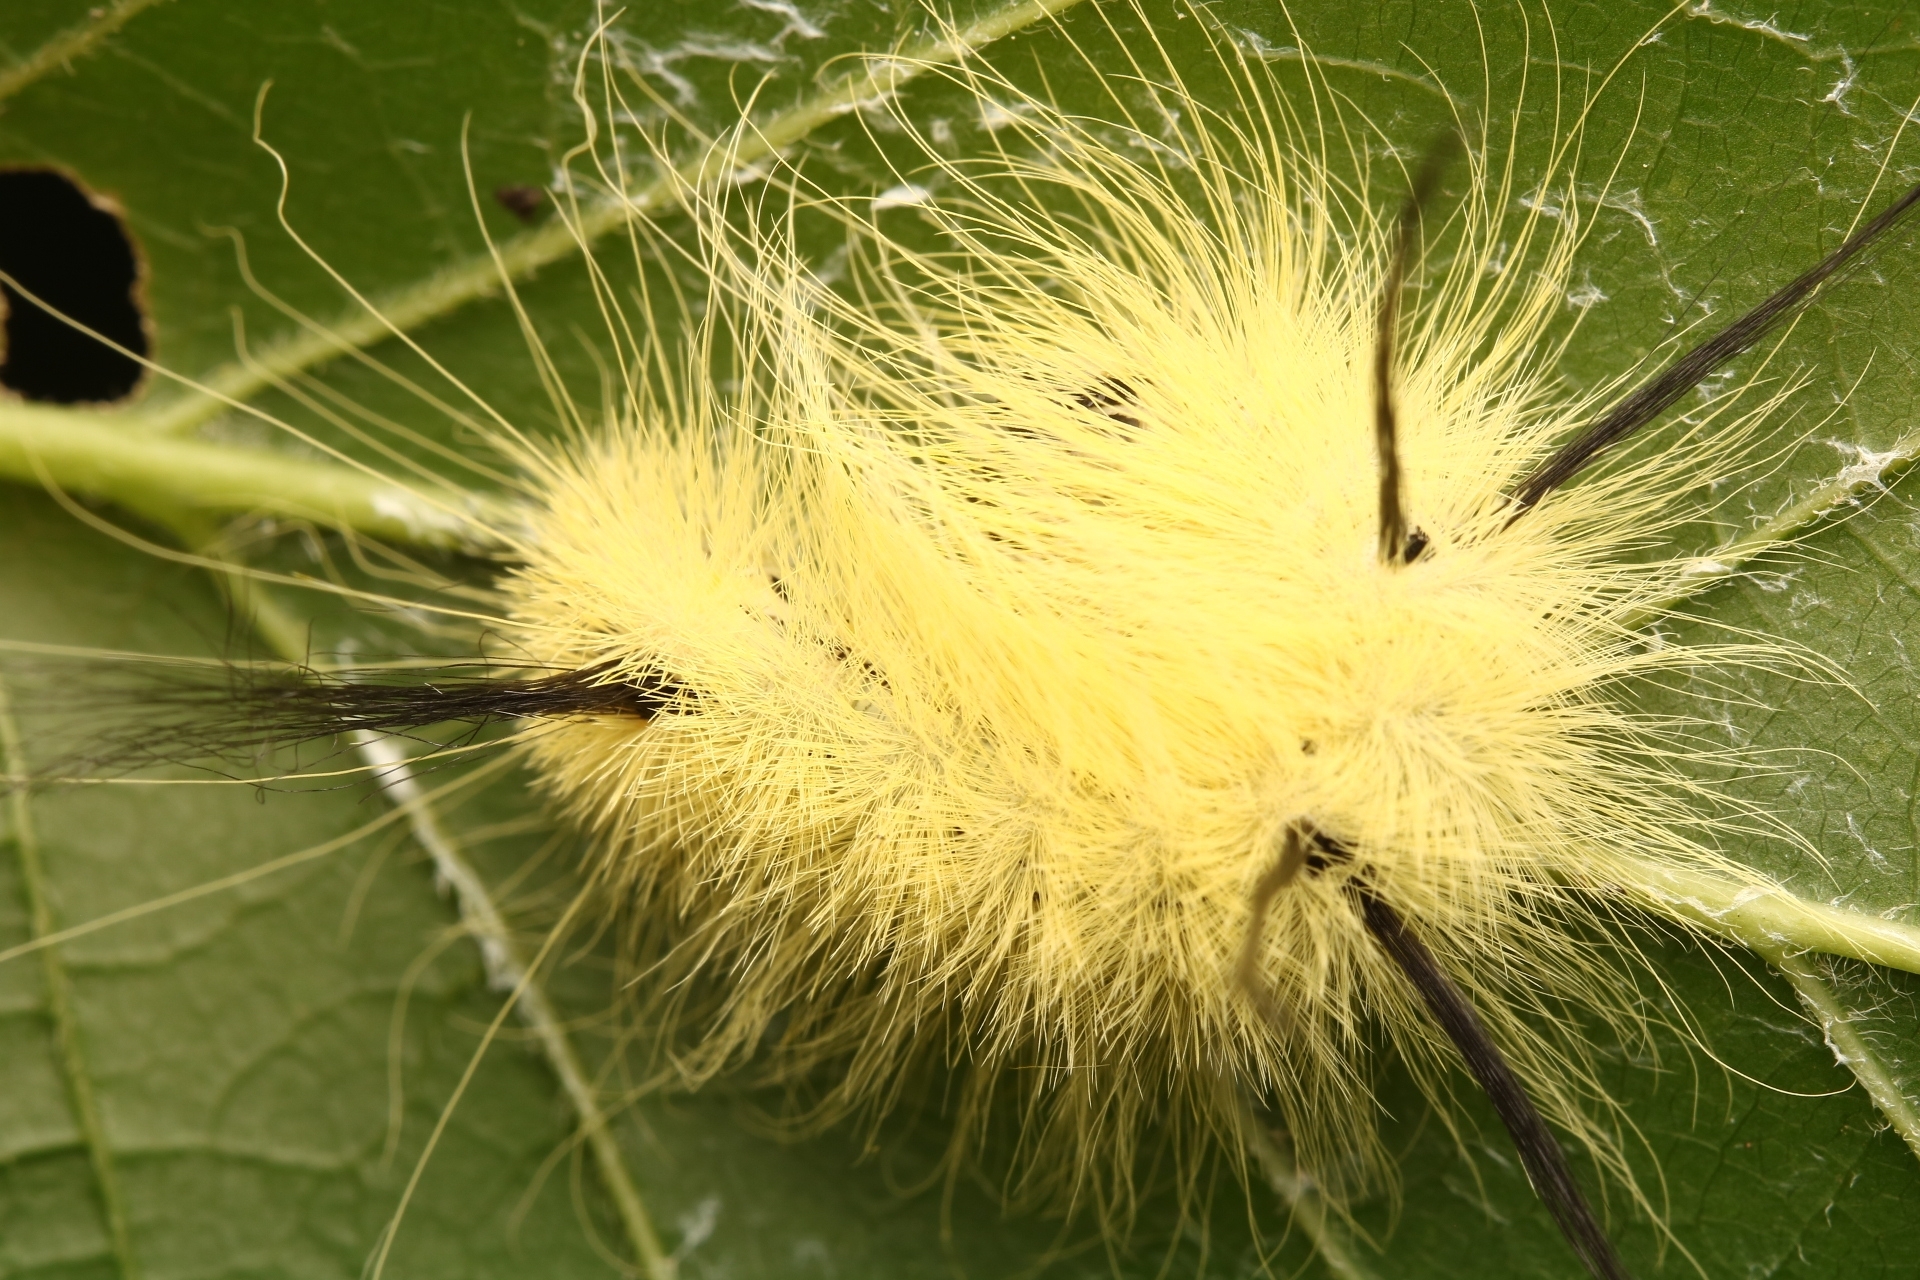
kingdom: Animalia
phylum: Arthropoda
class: Insecta
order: Lepidoptera
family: Noctuidae
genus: Acronicta
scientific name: Acronicta americana
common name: American dagger
